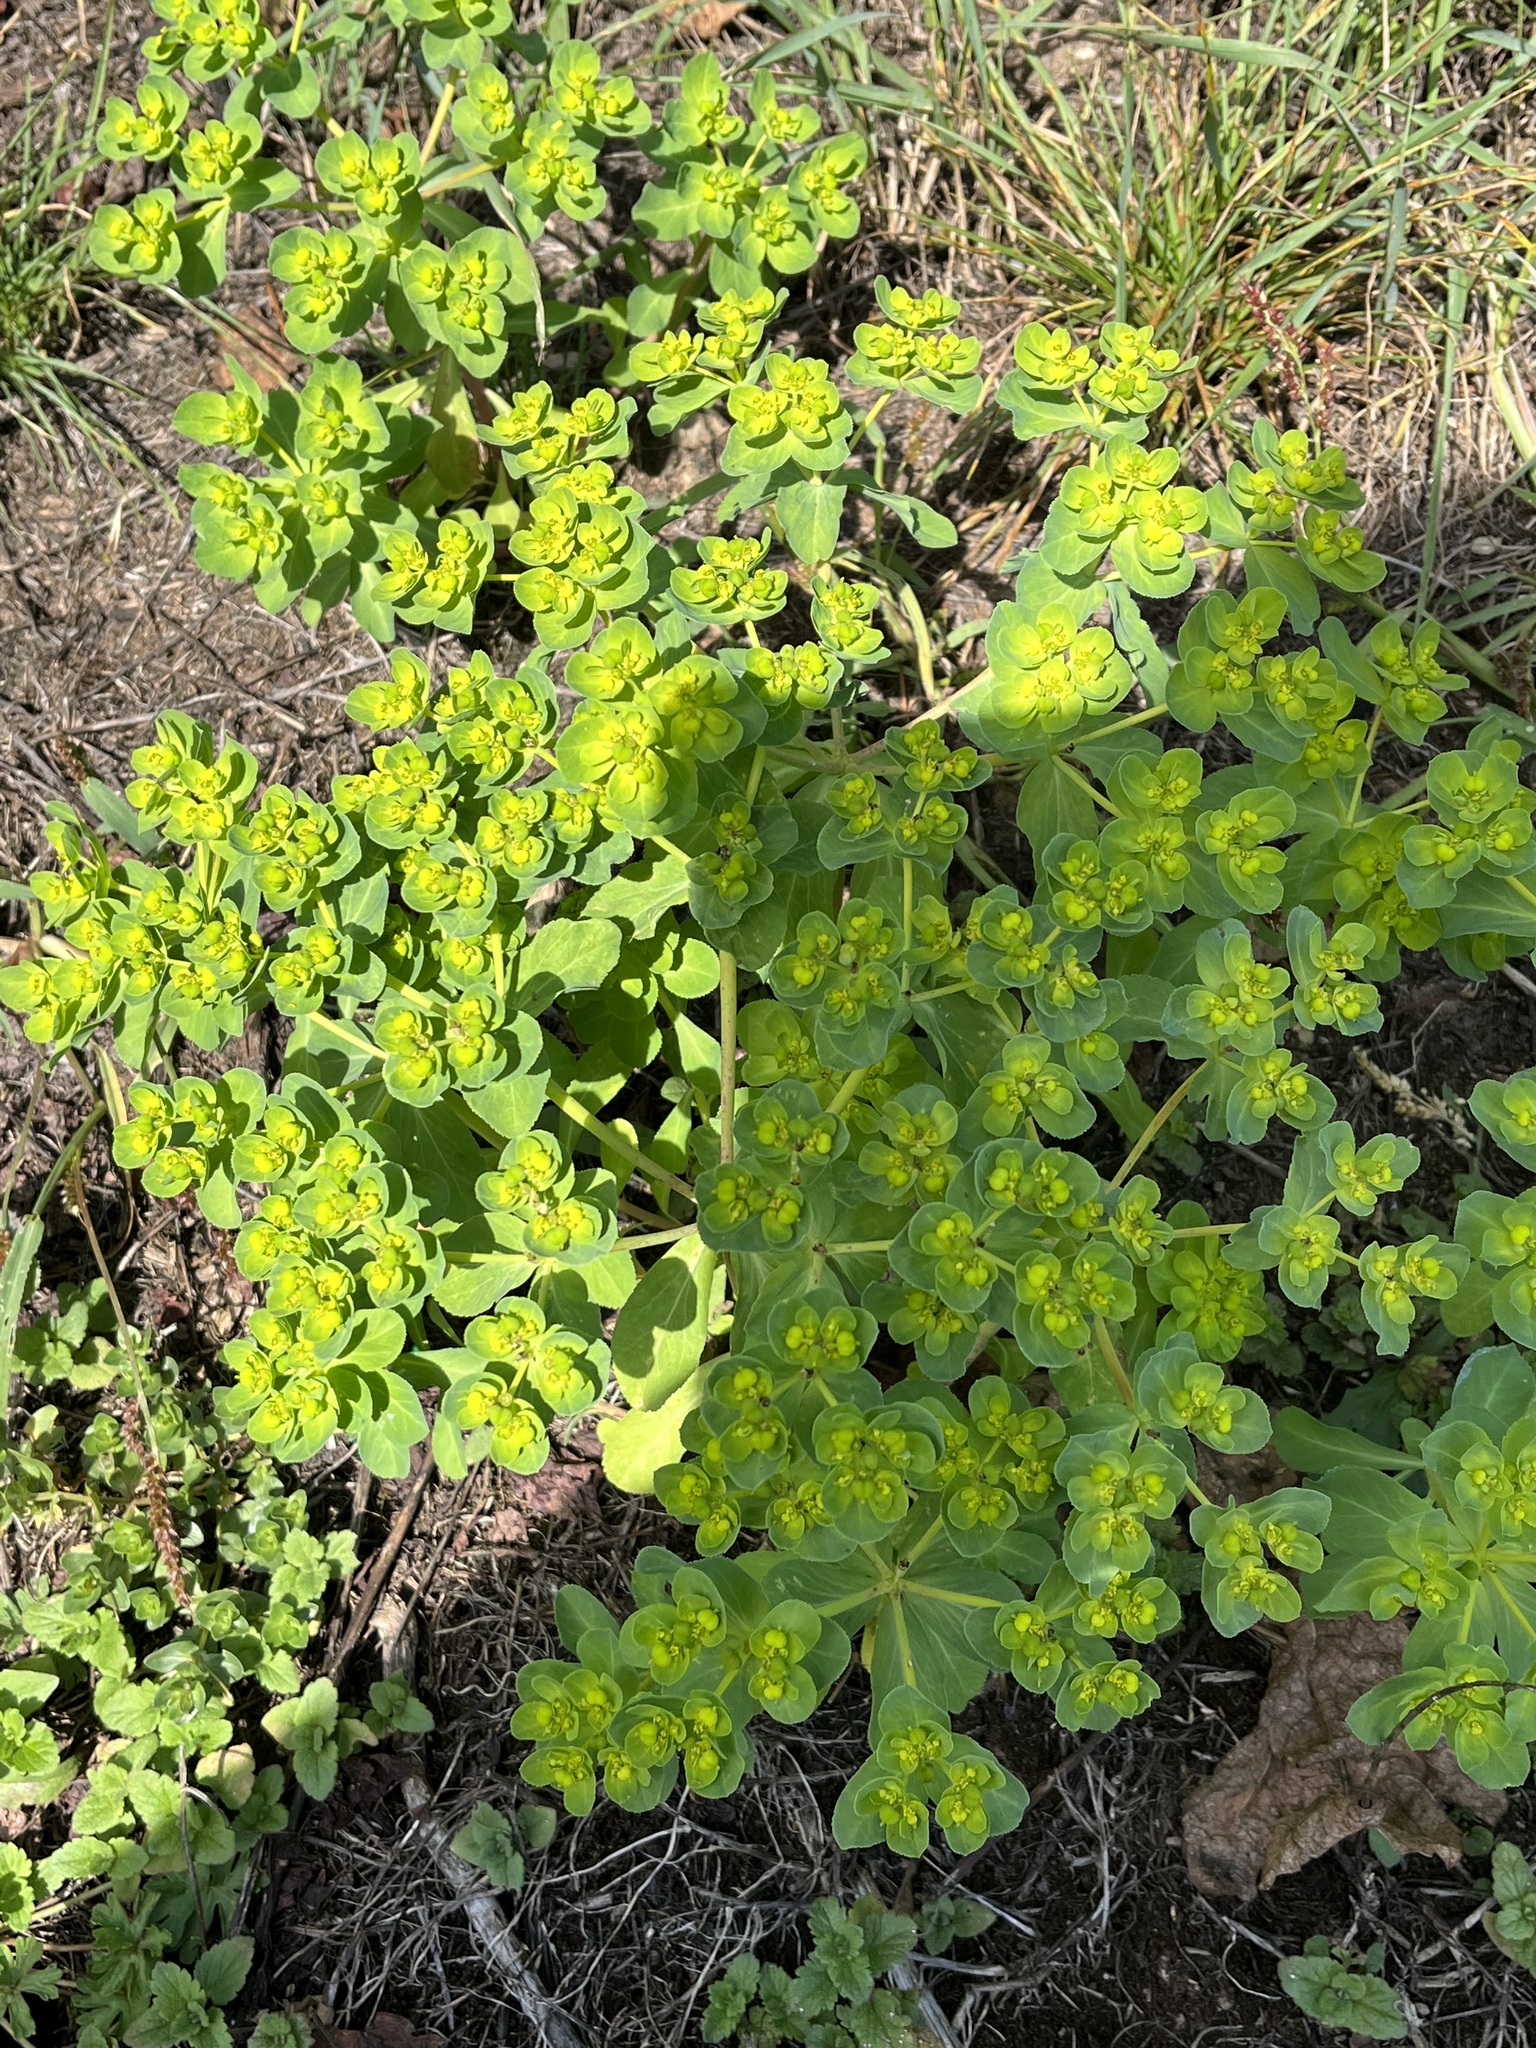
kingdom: Plantae
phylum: Tracheophyta
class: Magnoliopsida
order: Malpighiales
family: Euphorbiaceae
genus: Euphorbia
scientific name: Euphorbia helioscopia
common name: Sun spurge
